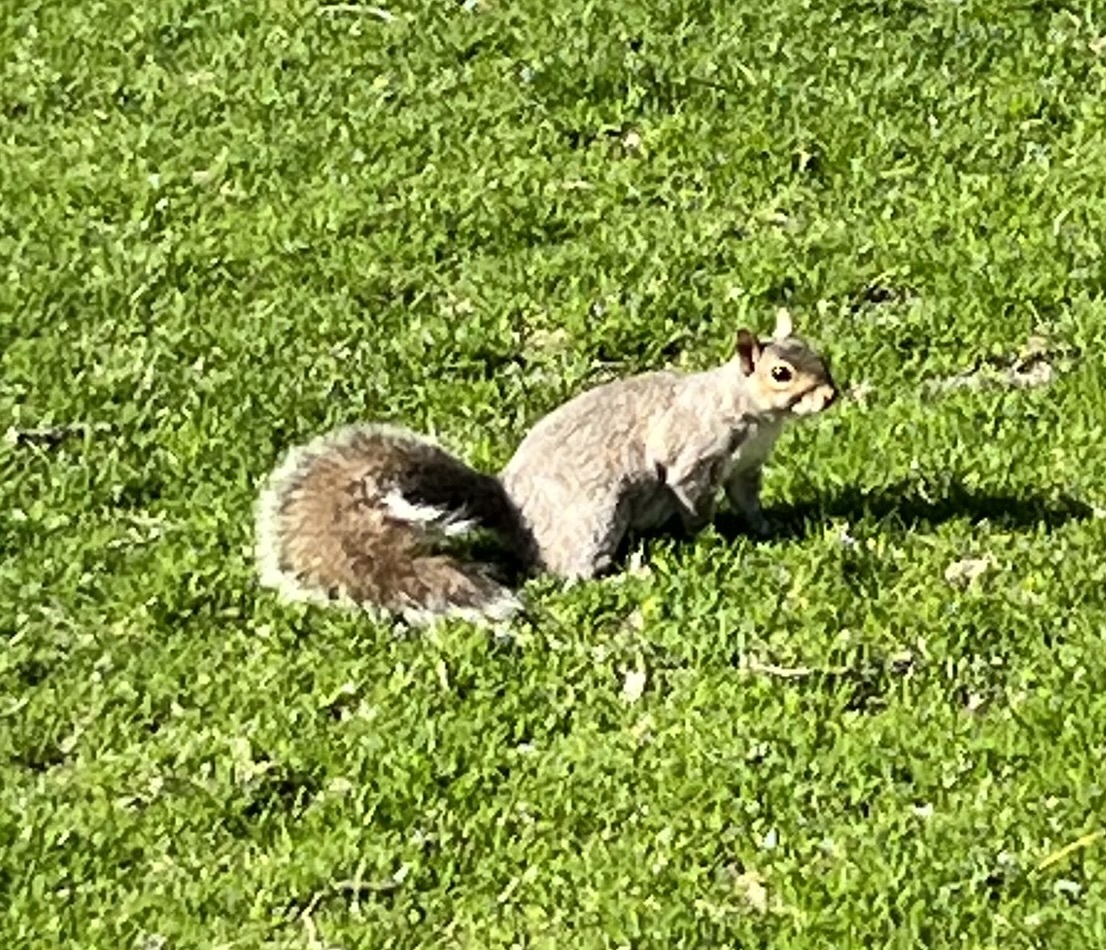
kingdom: Animalia
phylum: Chordata
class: Mammalia
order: Rodentia
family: Sciuridae
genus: Sciurus
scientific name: Sciurus carolinensis
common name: Eastern gray squirrel
